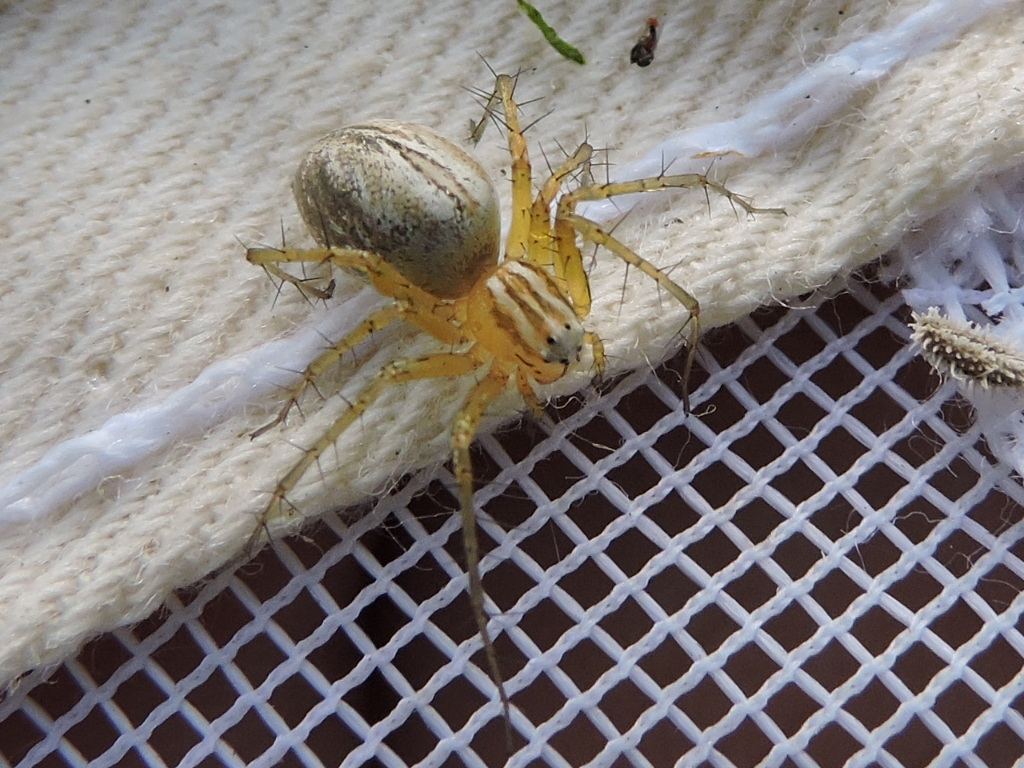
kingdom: Animalia
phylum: Arthropoda
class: Arachnida
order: Araneae
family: Oxyopidae
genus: Oxyopes
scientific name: Oxyopes salticus
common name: Lynx spiders
